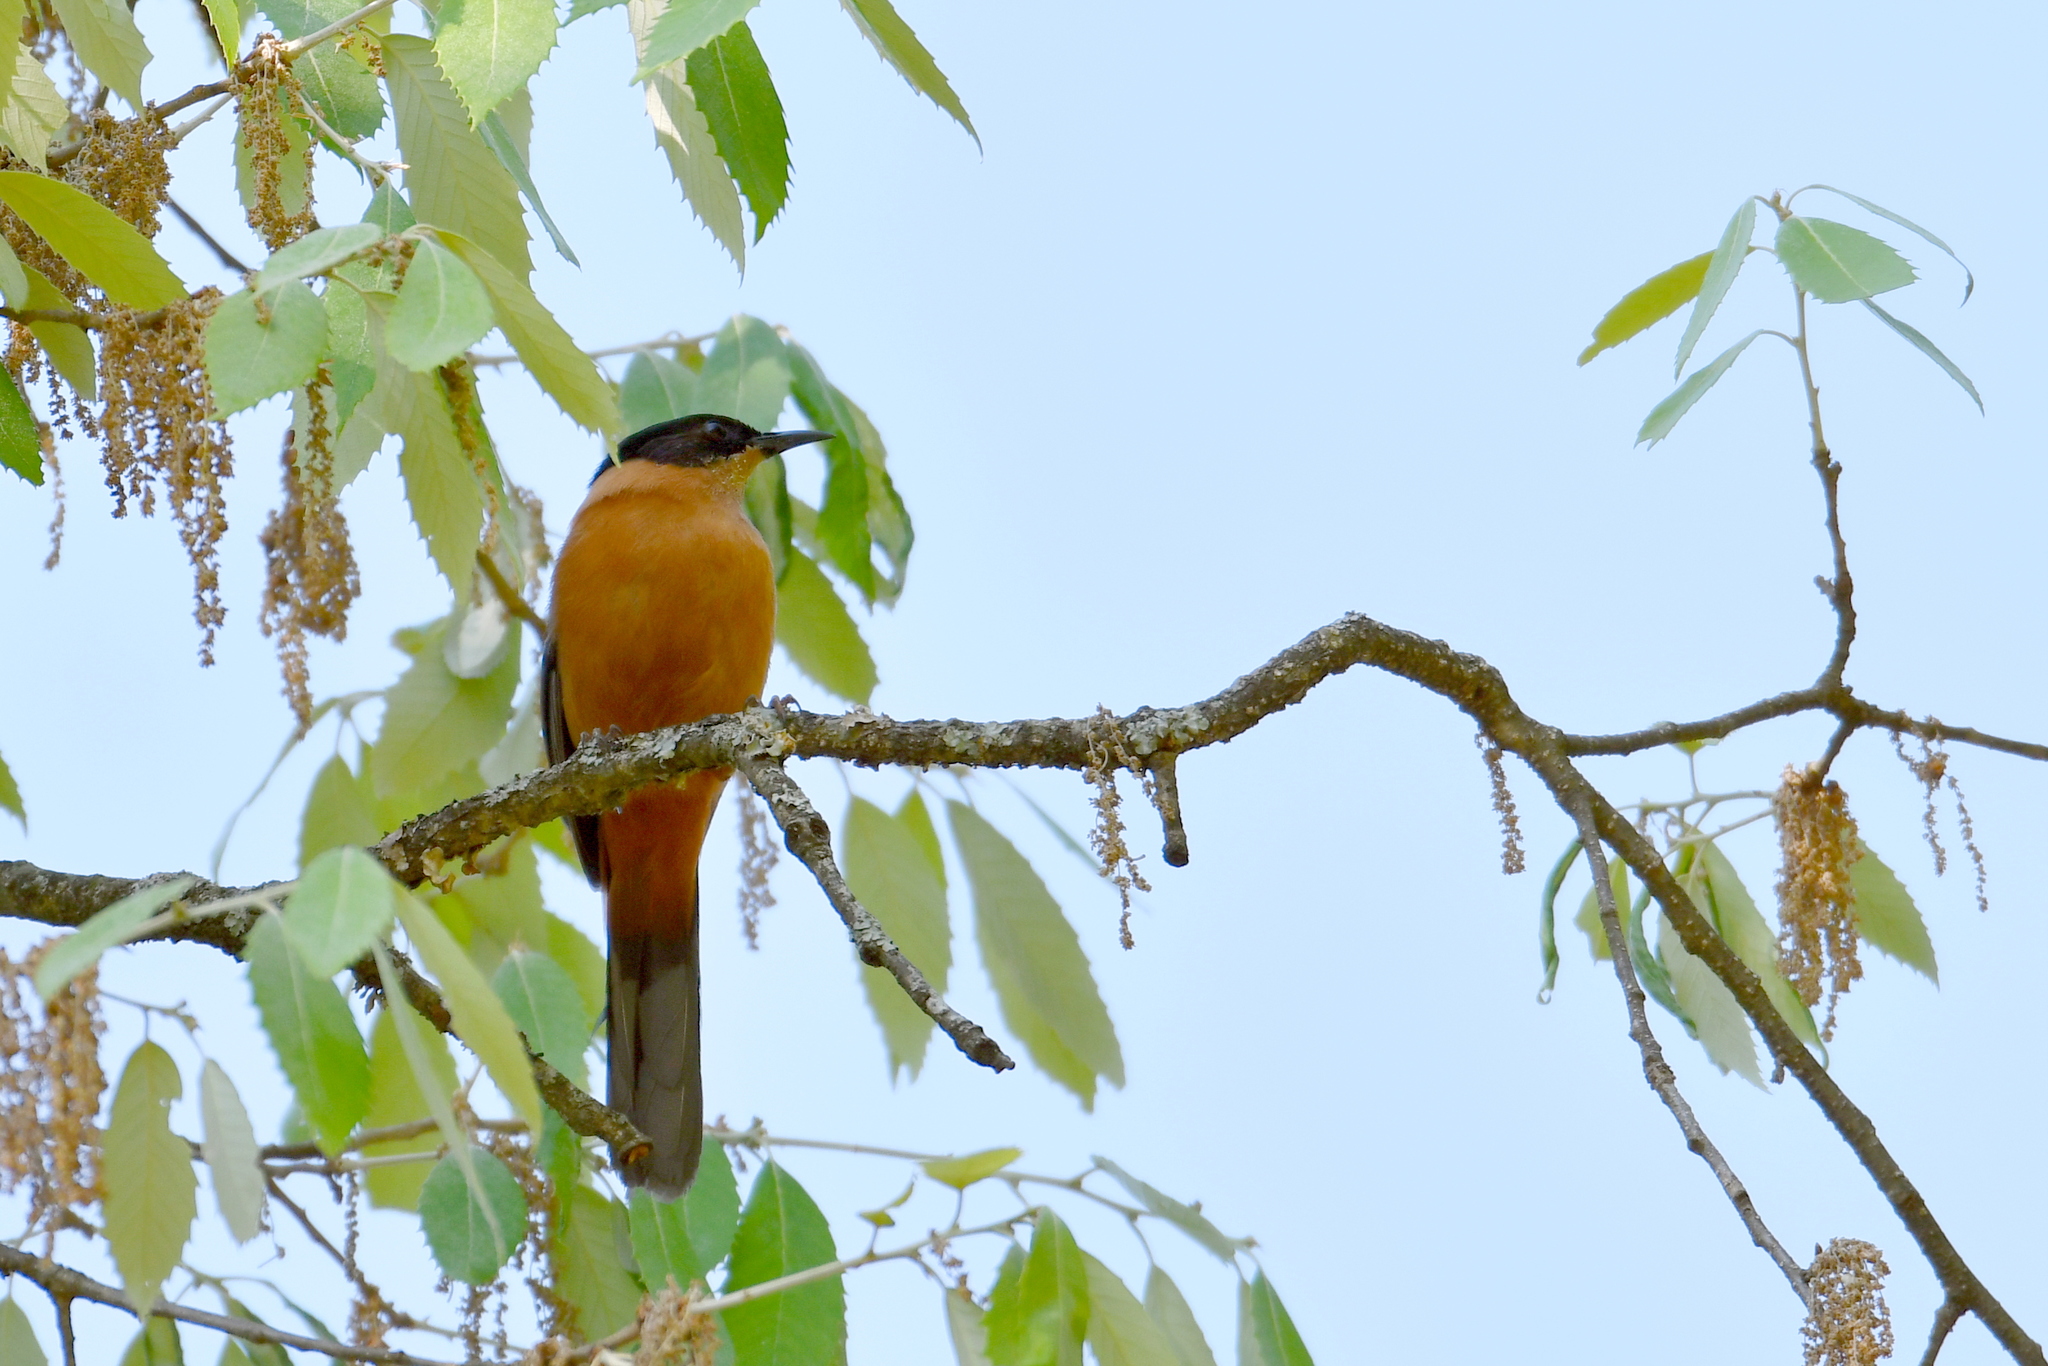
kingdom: Animalia
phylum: Chordata
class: Aves
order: Passeriformes
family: Leiothrichidae
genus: Heterophasia
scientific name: Heterophasia capistrata
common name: Rufous sibia
